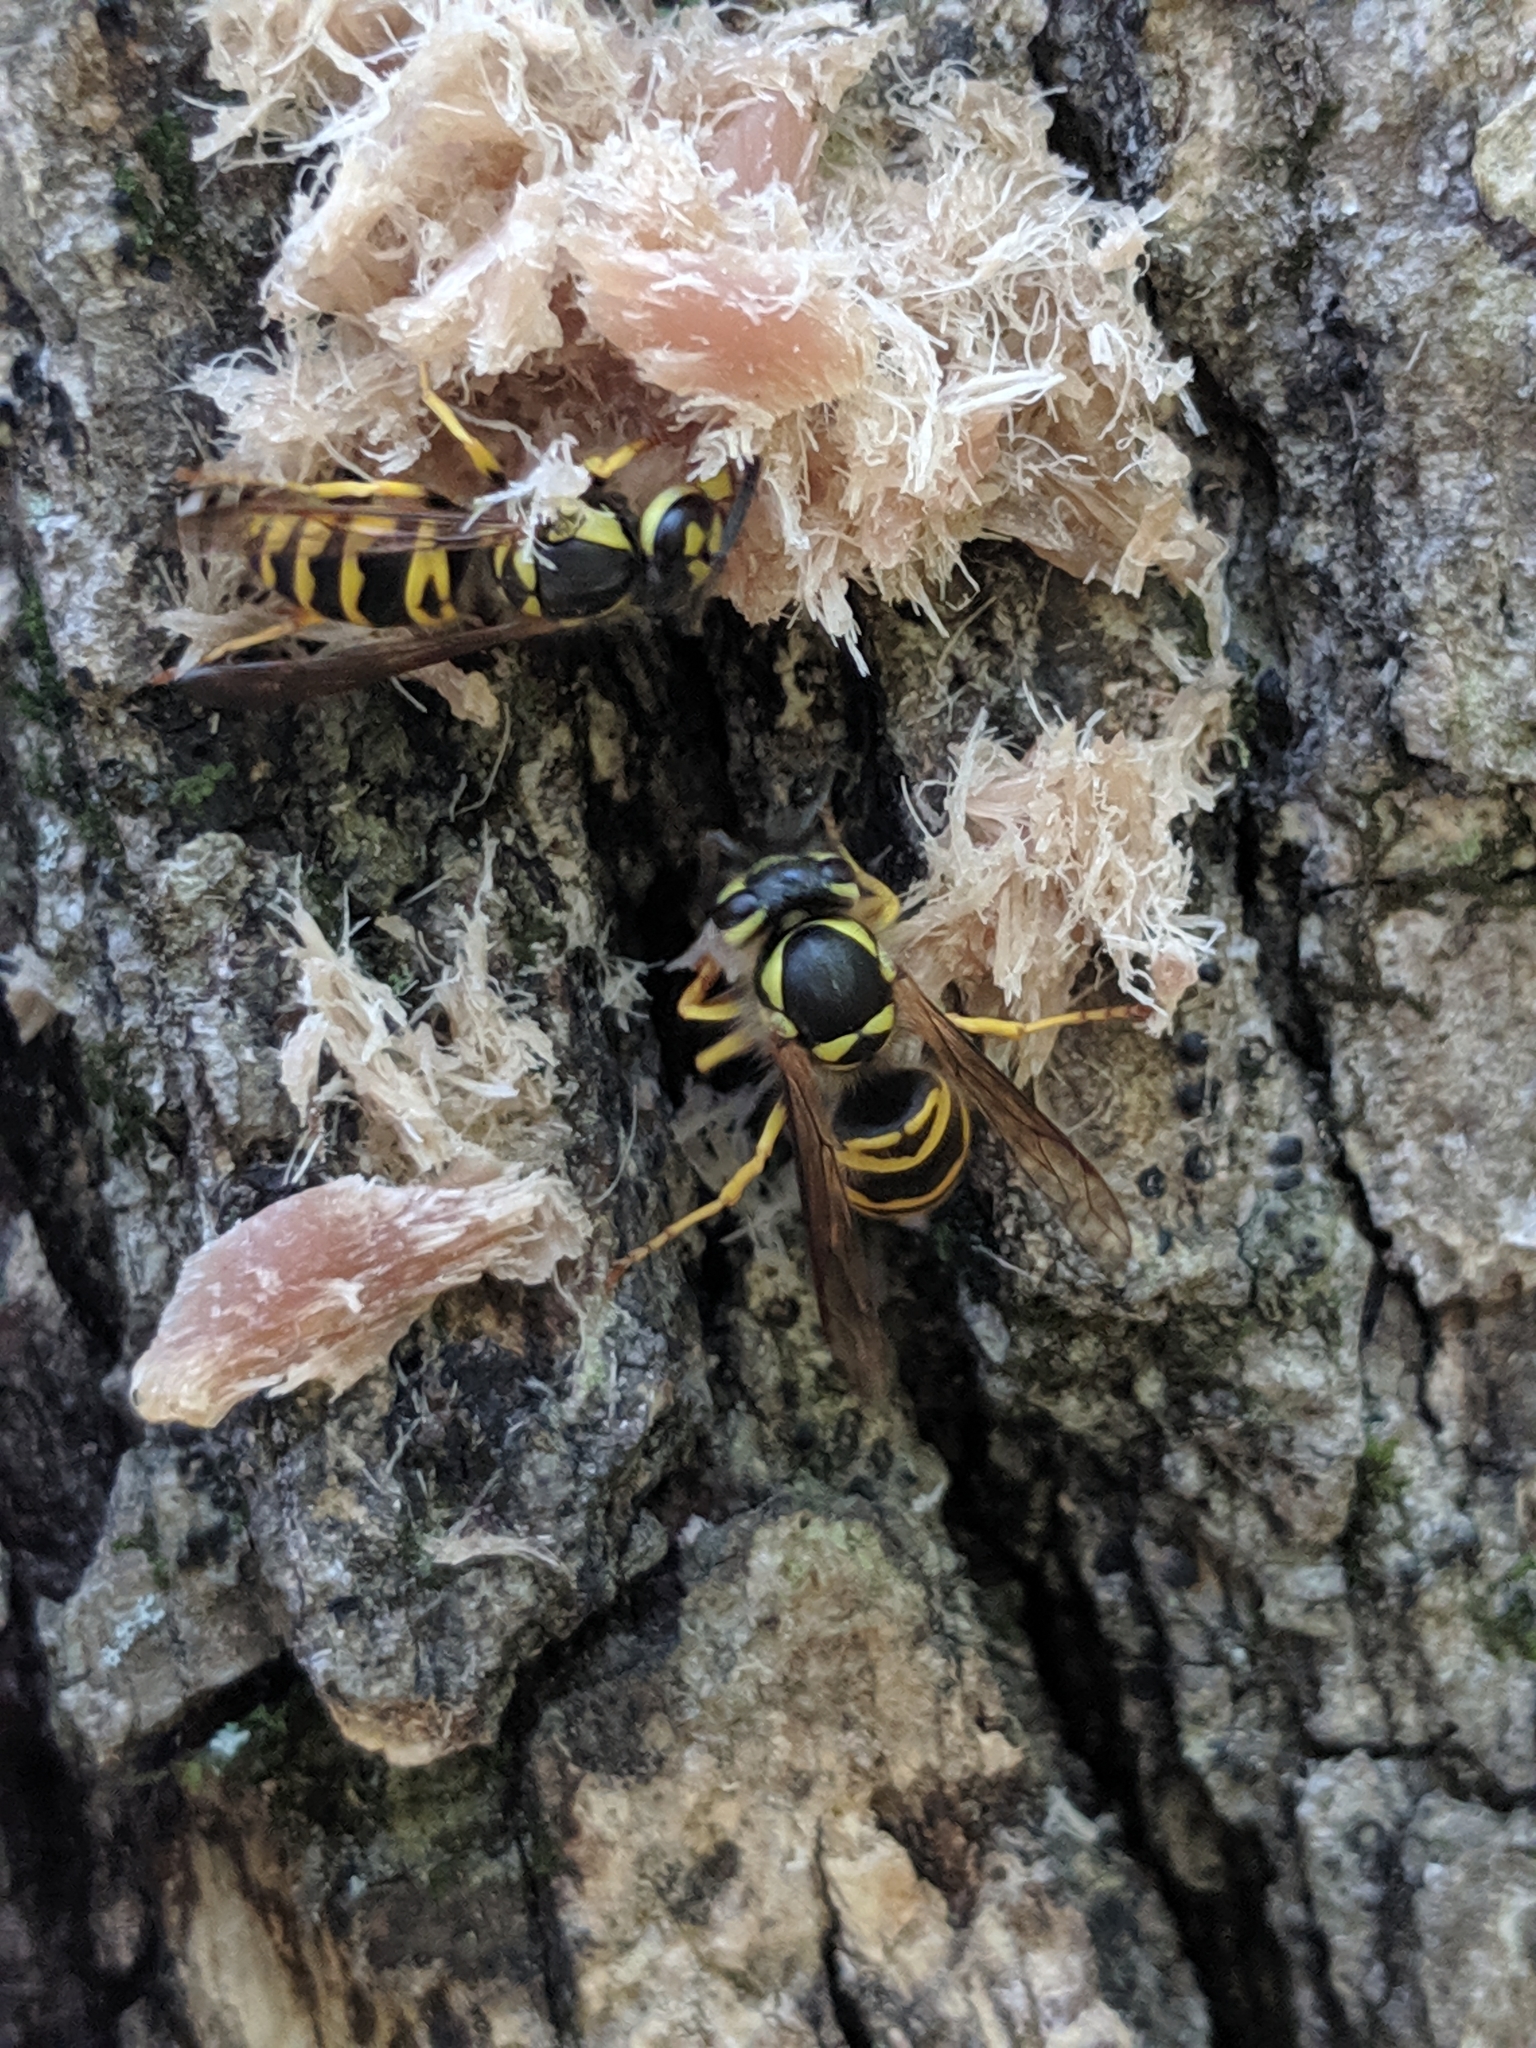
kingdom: Animalia
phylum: Arthropoda
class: Insecta
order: Hymenoptera
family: Vespidae
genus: Vespula
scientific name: Vespula maculifrons
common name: Eastern yellowjacket
